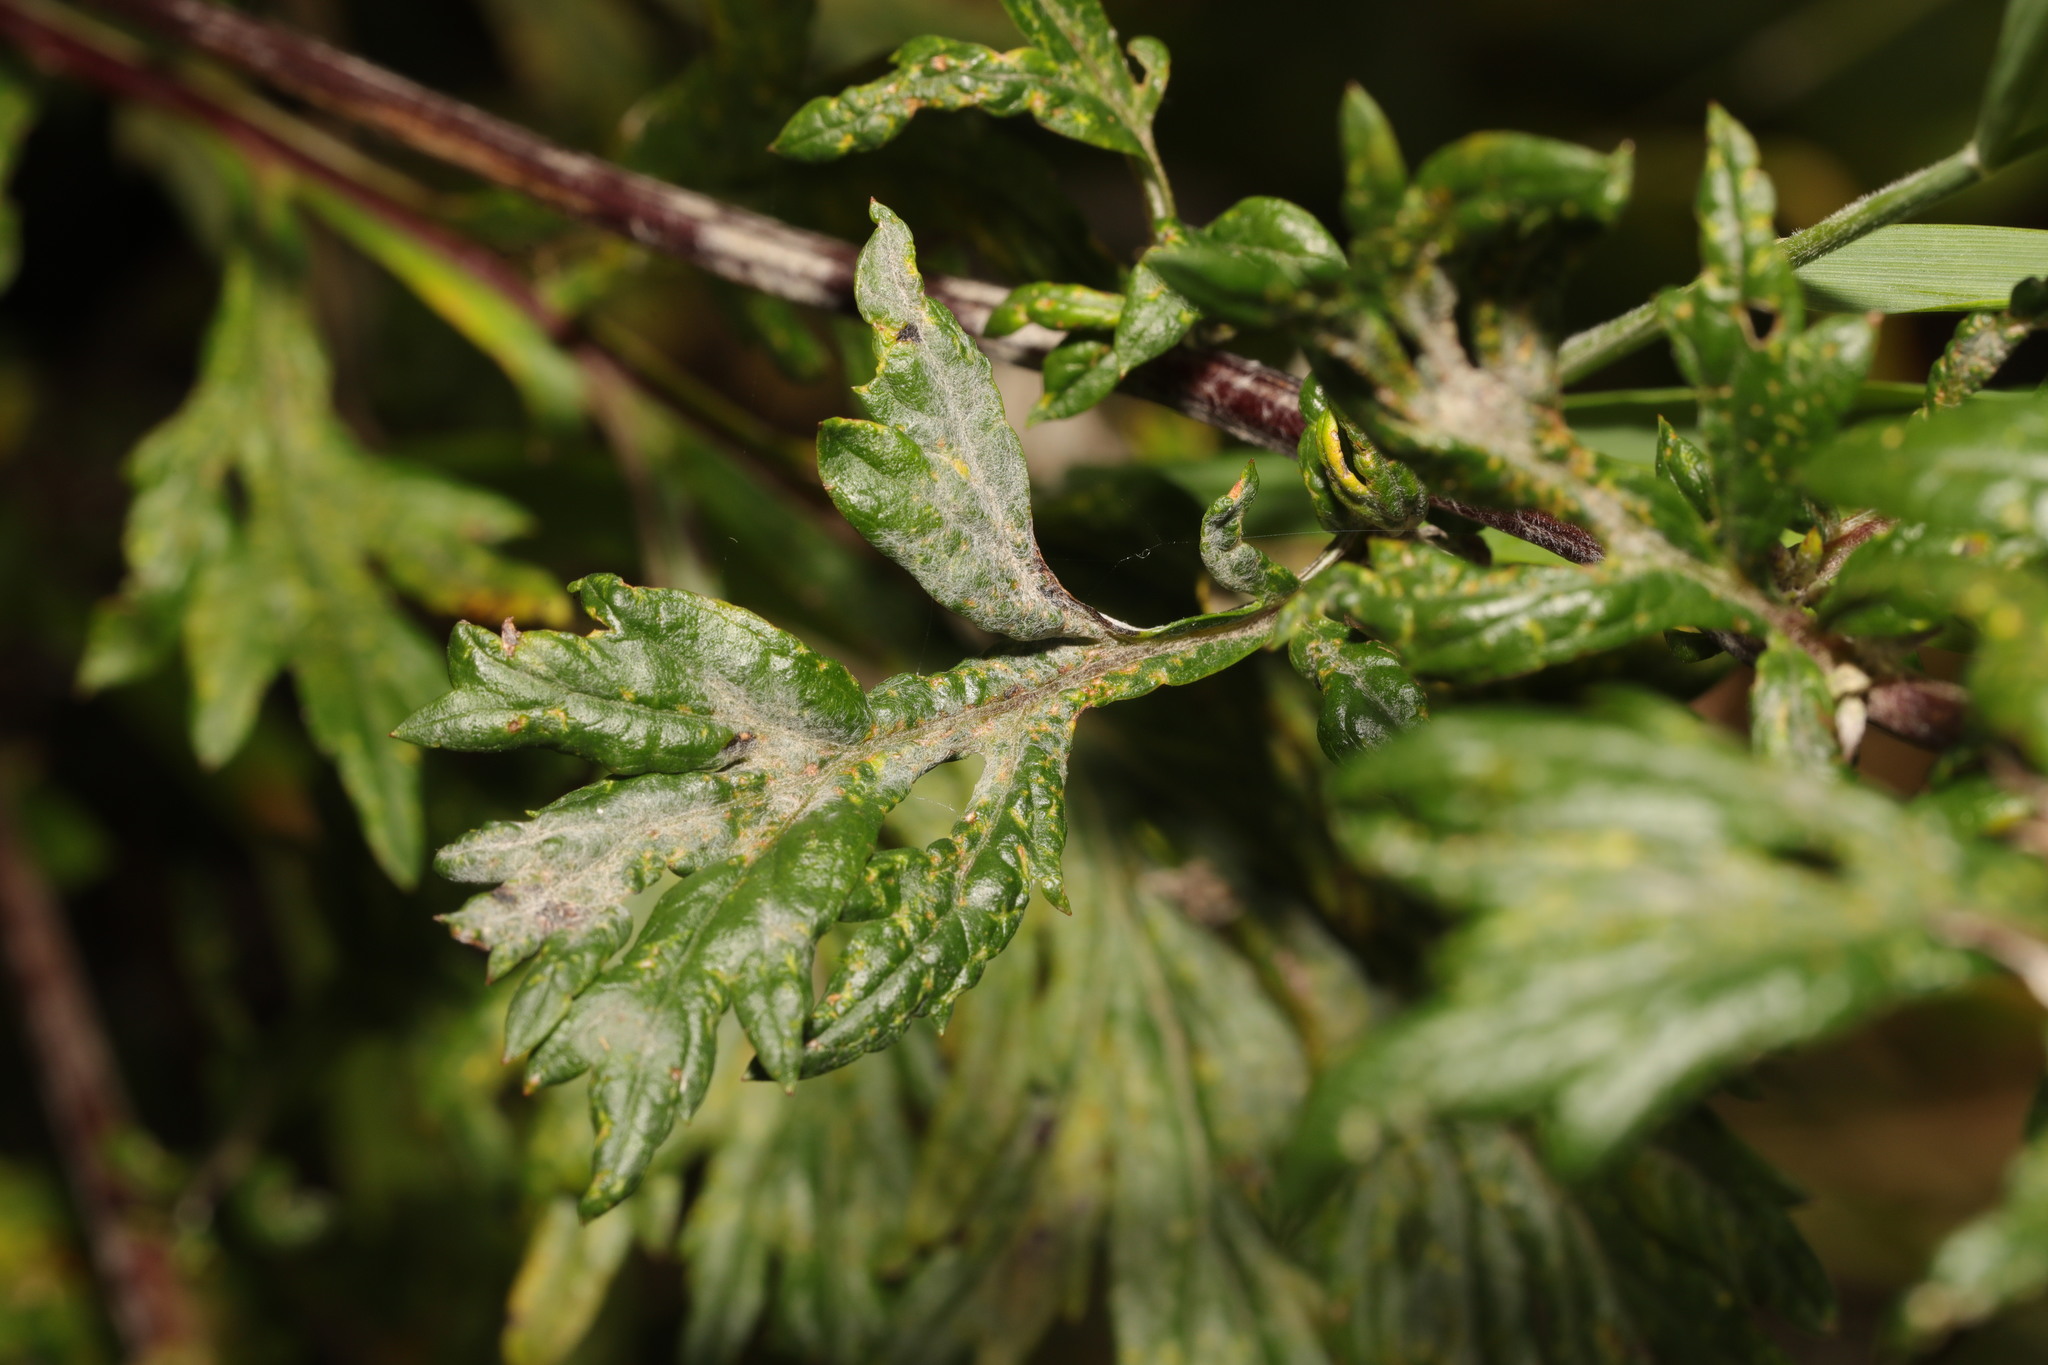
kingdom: Fungi
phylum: Ascomycota
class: Leotiomycetes
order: Helotiales
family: Erysiphaceae
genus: Golovinomyces
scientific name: Golovinomyces artemisiae
